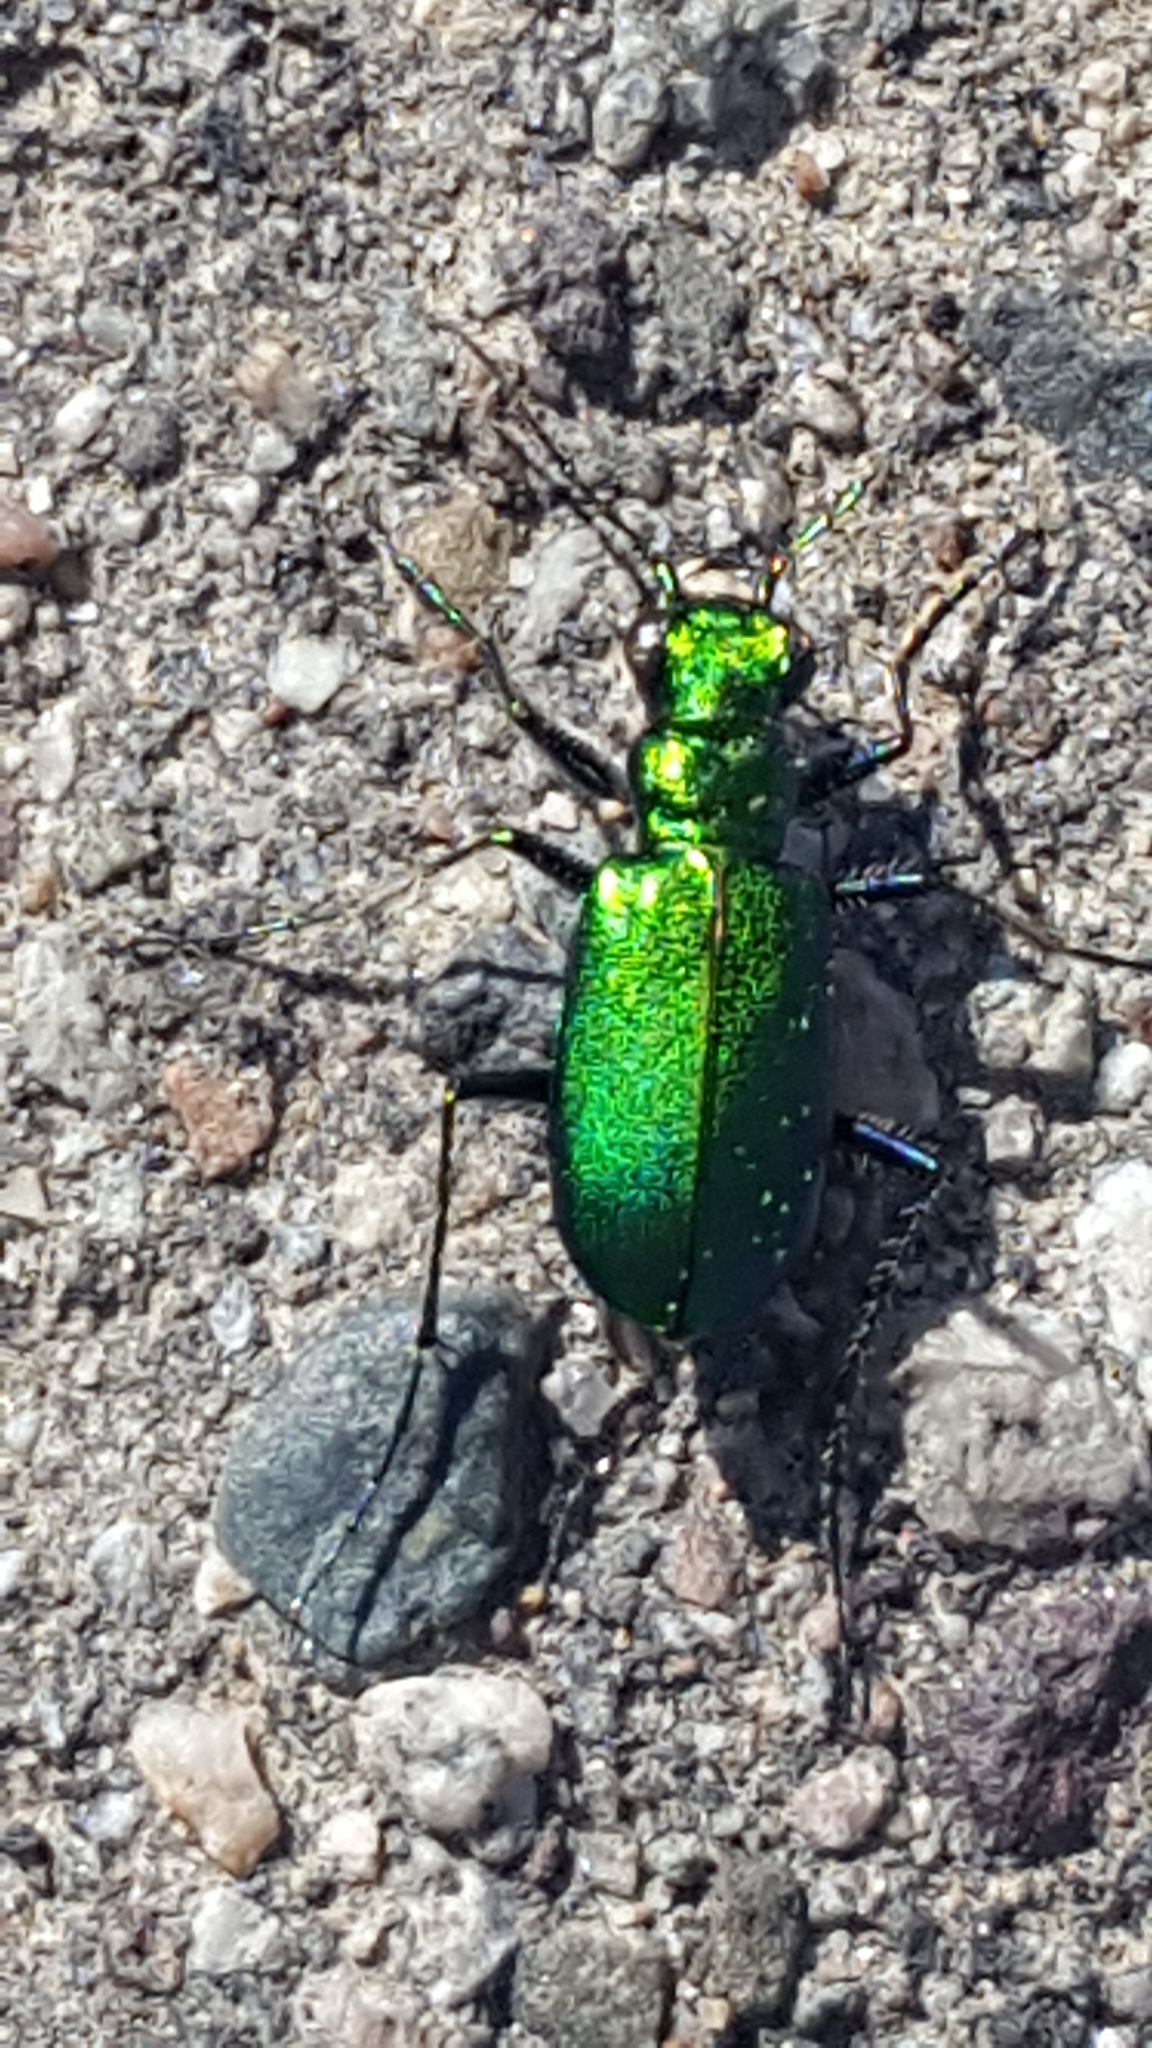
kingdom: Animalia
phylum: Arthropoda
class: Insecta
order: Coleoptera
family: Carabidae
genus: Cicindela
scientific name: Cicindela denikei
